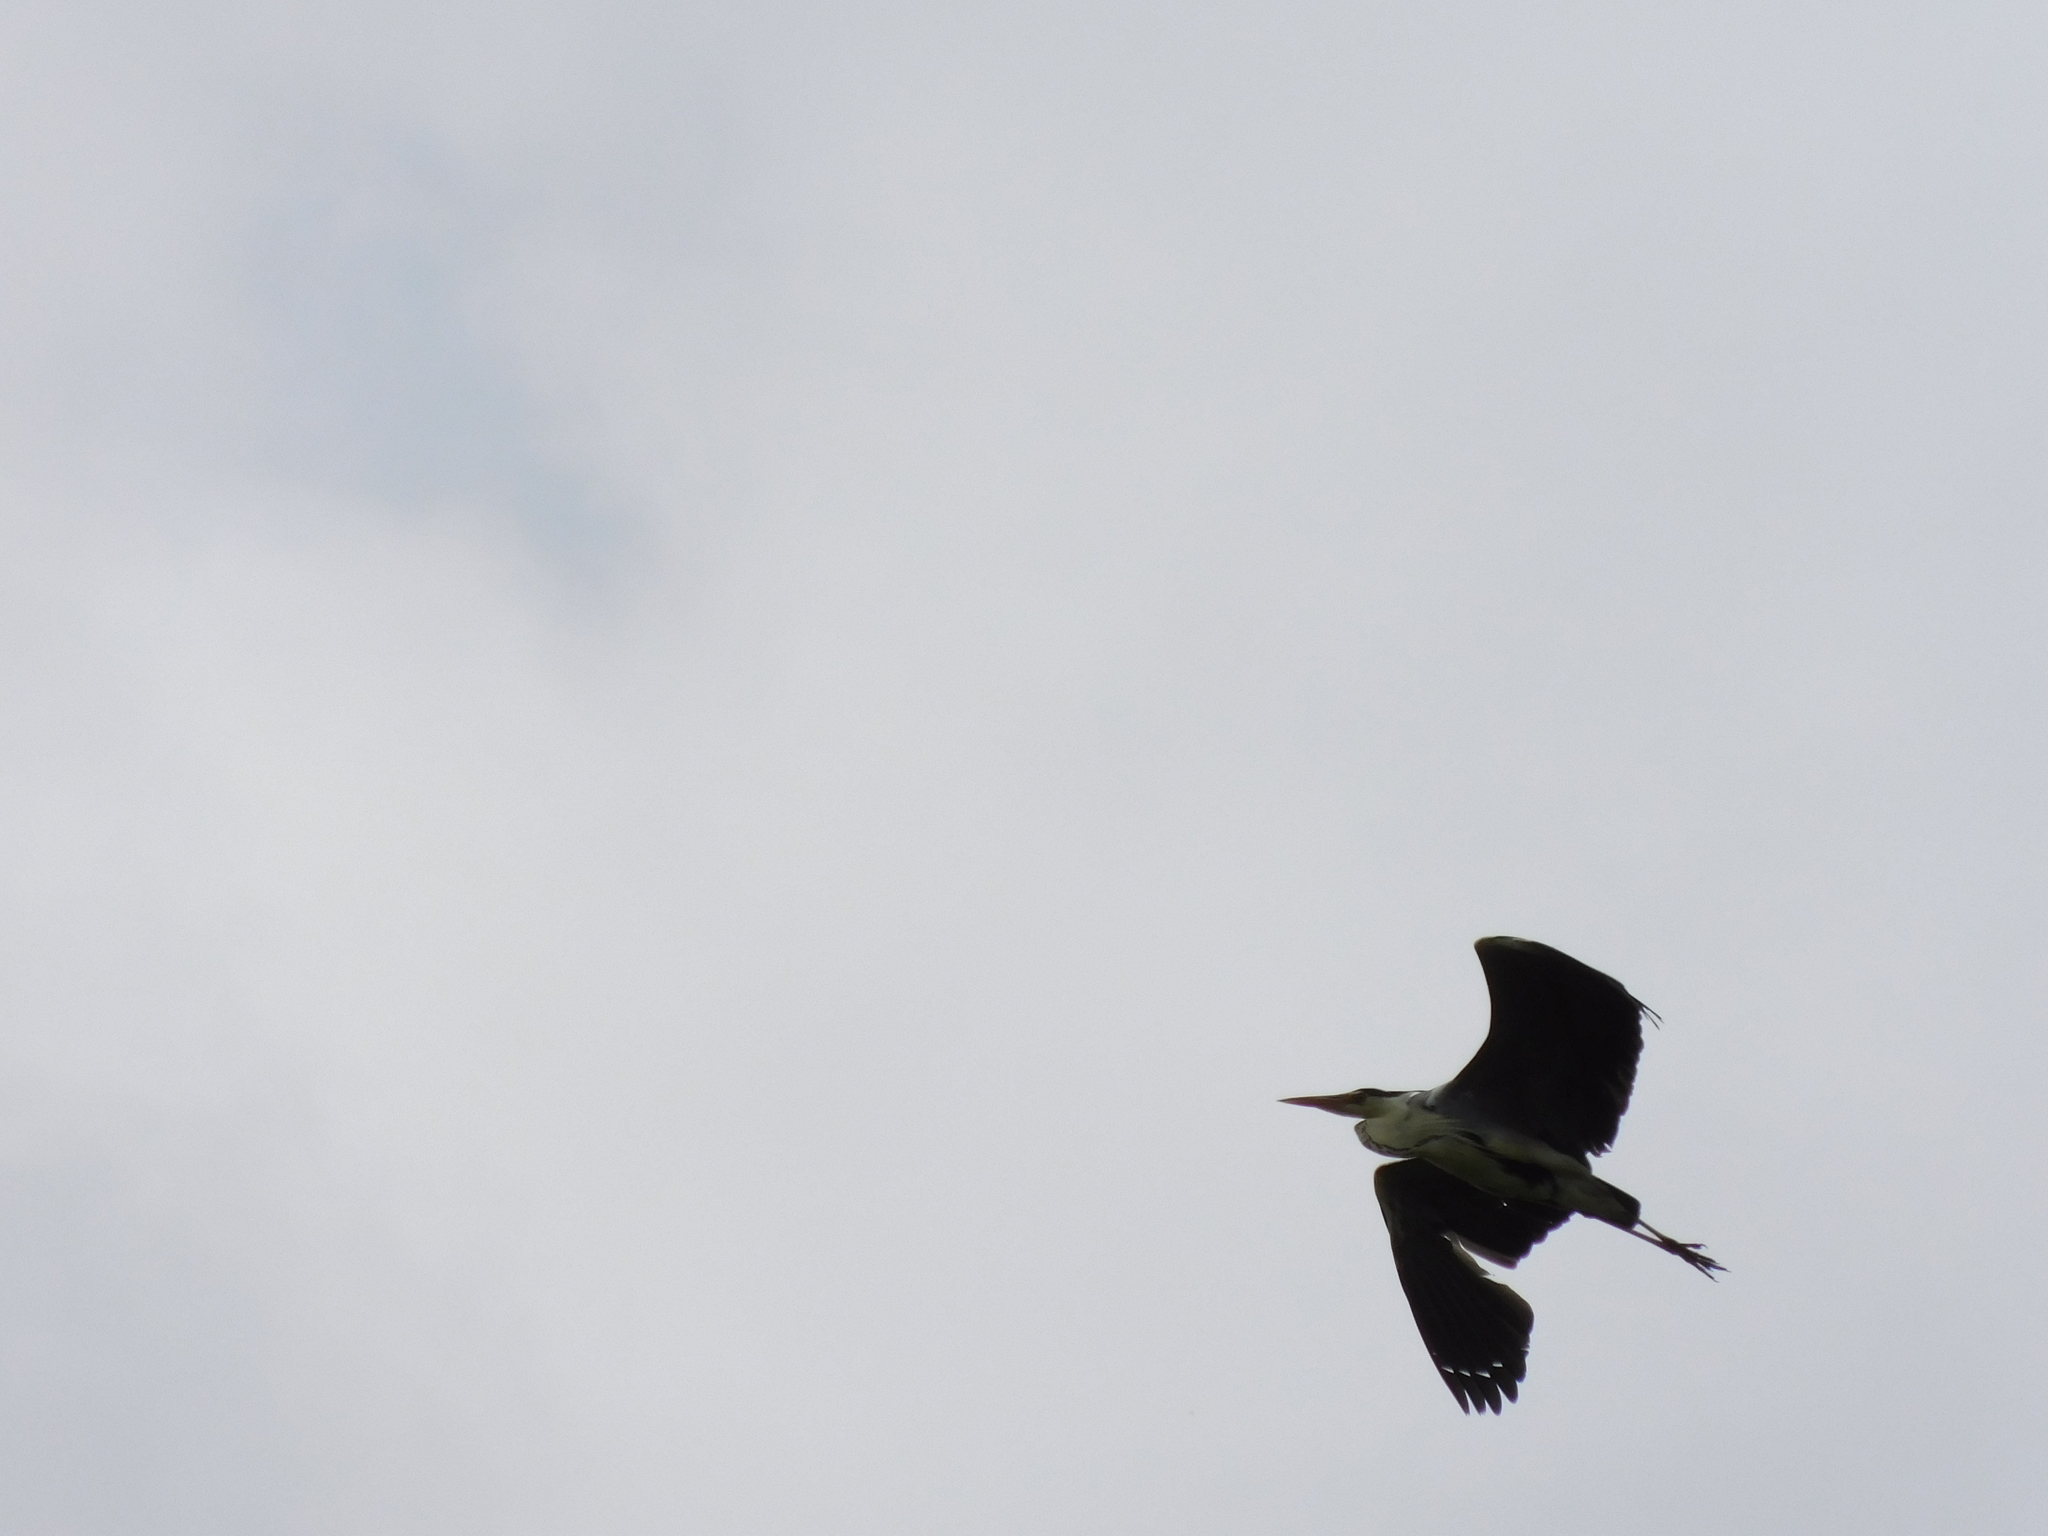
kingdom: Animalia
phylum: Chordata
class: Aves
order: Pelecaniformes
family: Ardeidae
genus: Ardea
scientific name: Ardea cinerea
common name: Grey heron
